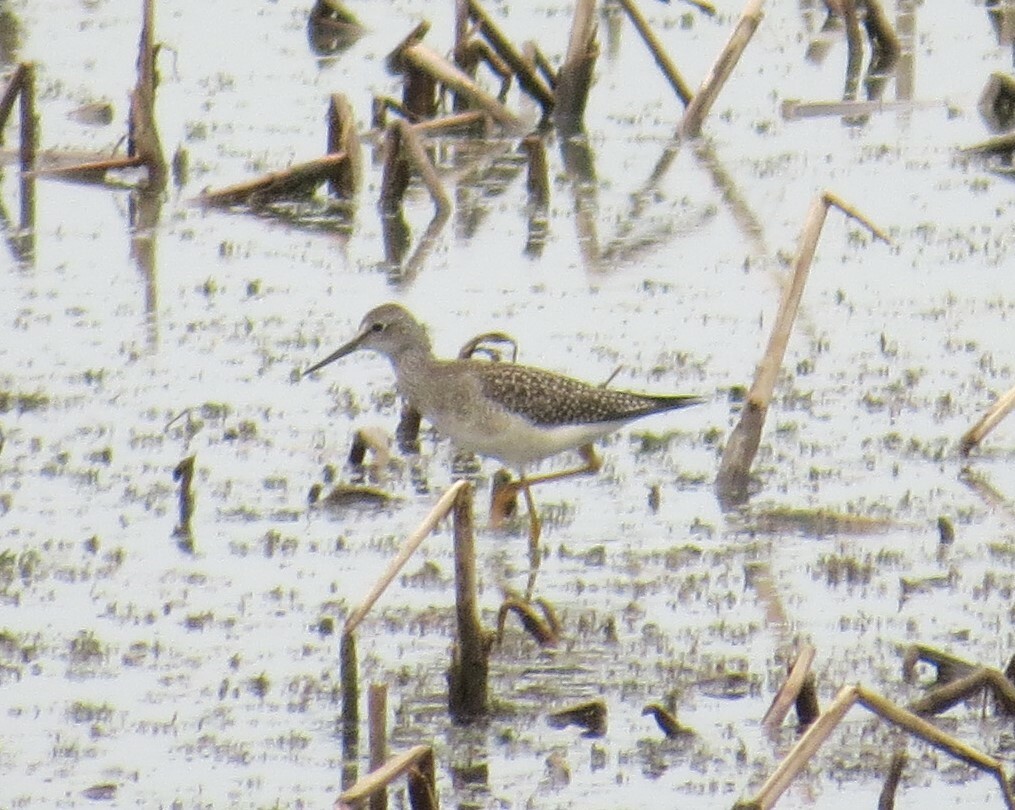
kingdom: Animalia
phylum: Chordata
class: Aves
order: Charadriiformes
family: Scolopacidae
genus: Tringa
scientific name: Tringa flavipes
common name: Lesser yellowlegs
